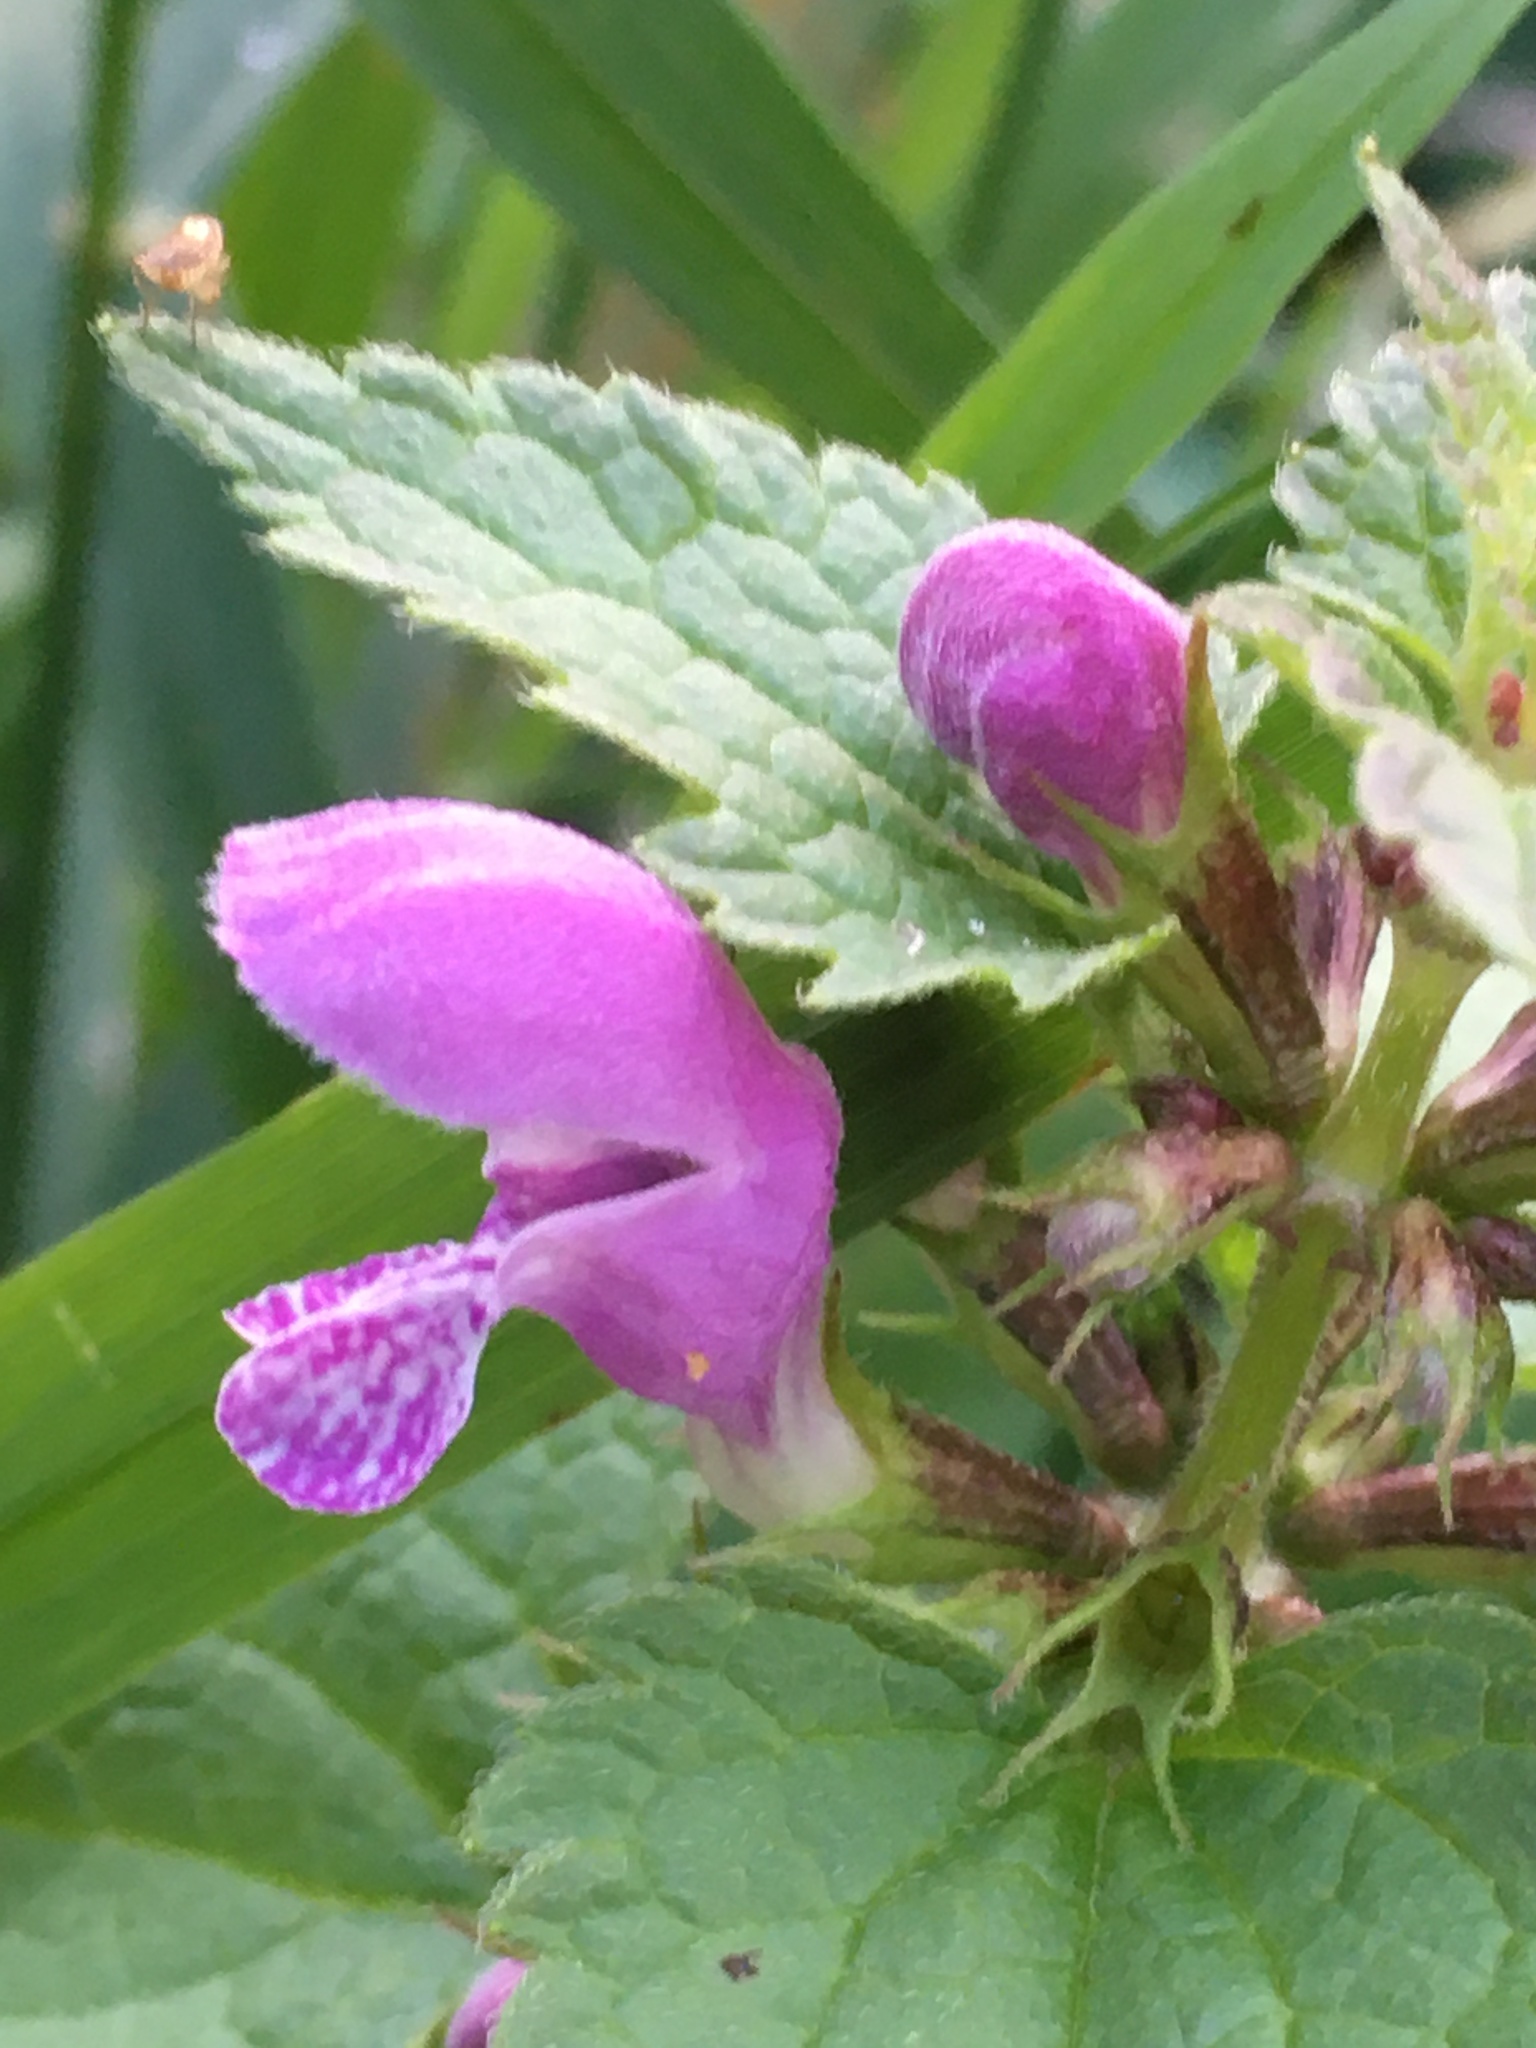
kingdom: Plantae
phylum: Tracheophyta
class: Magnoliopsida
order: Lamiales
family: Lamiaceae
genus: Lamium
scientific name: Lamium maculatum
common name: Spotted dead-nettle
